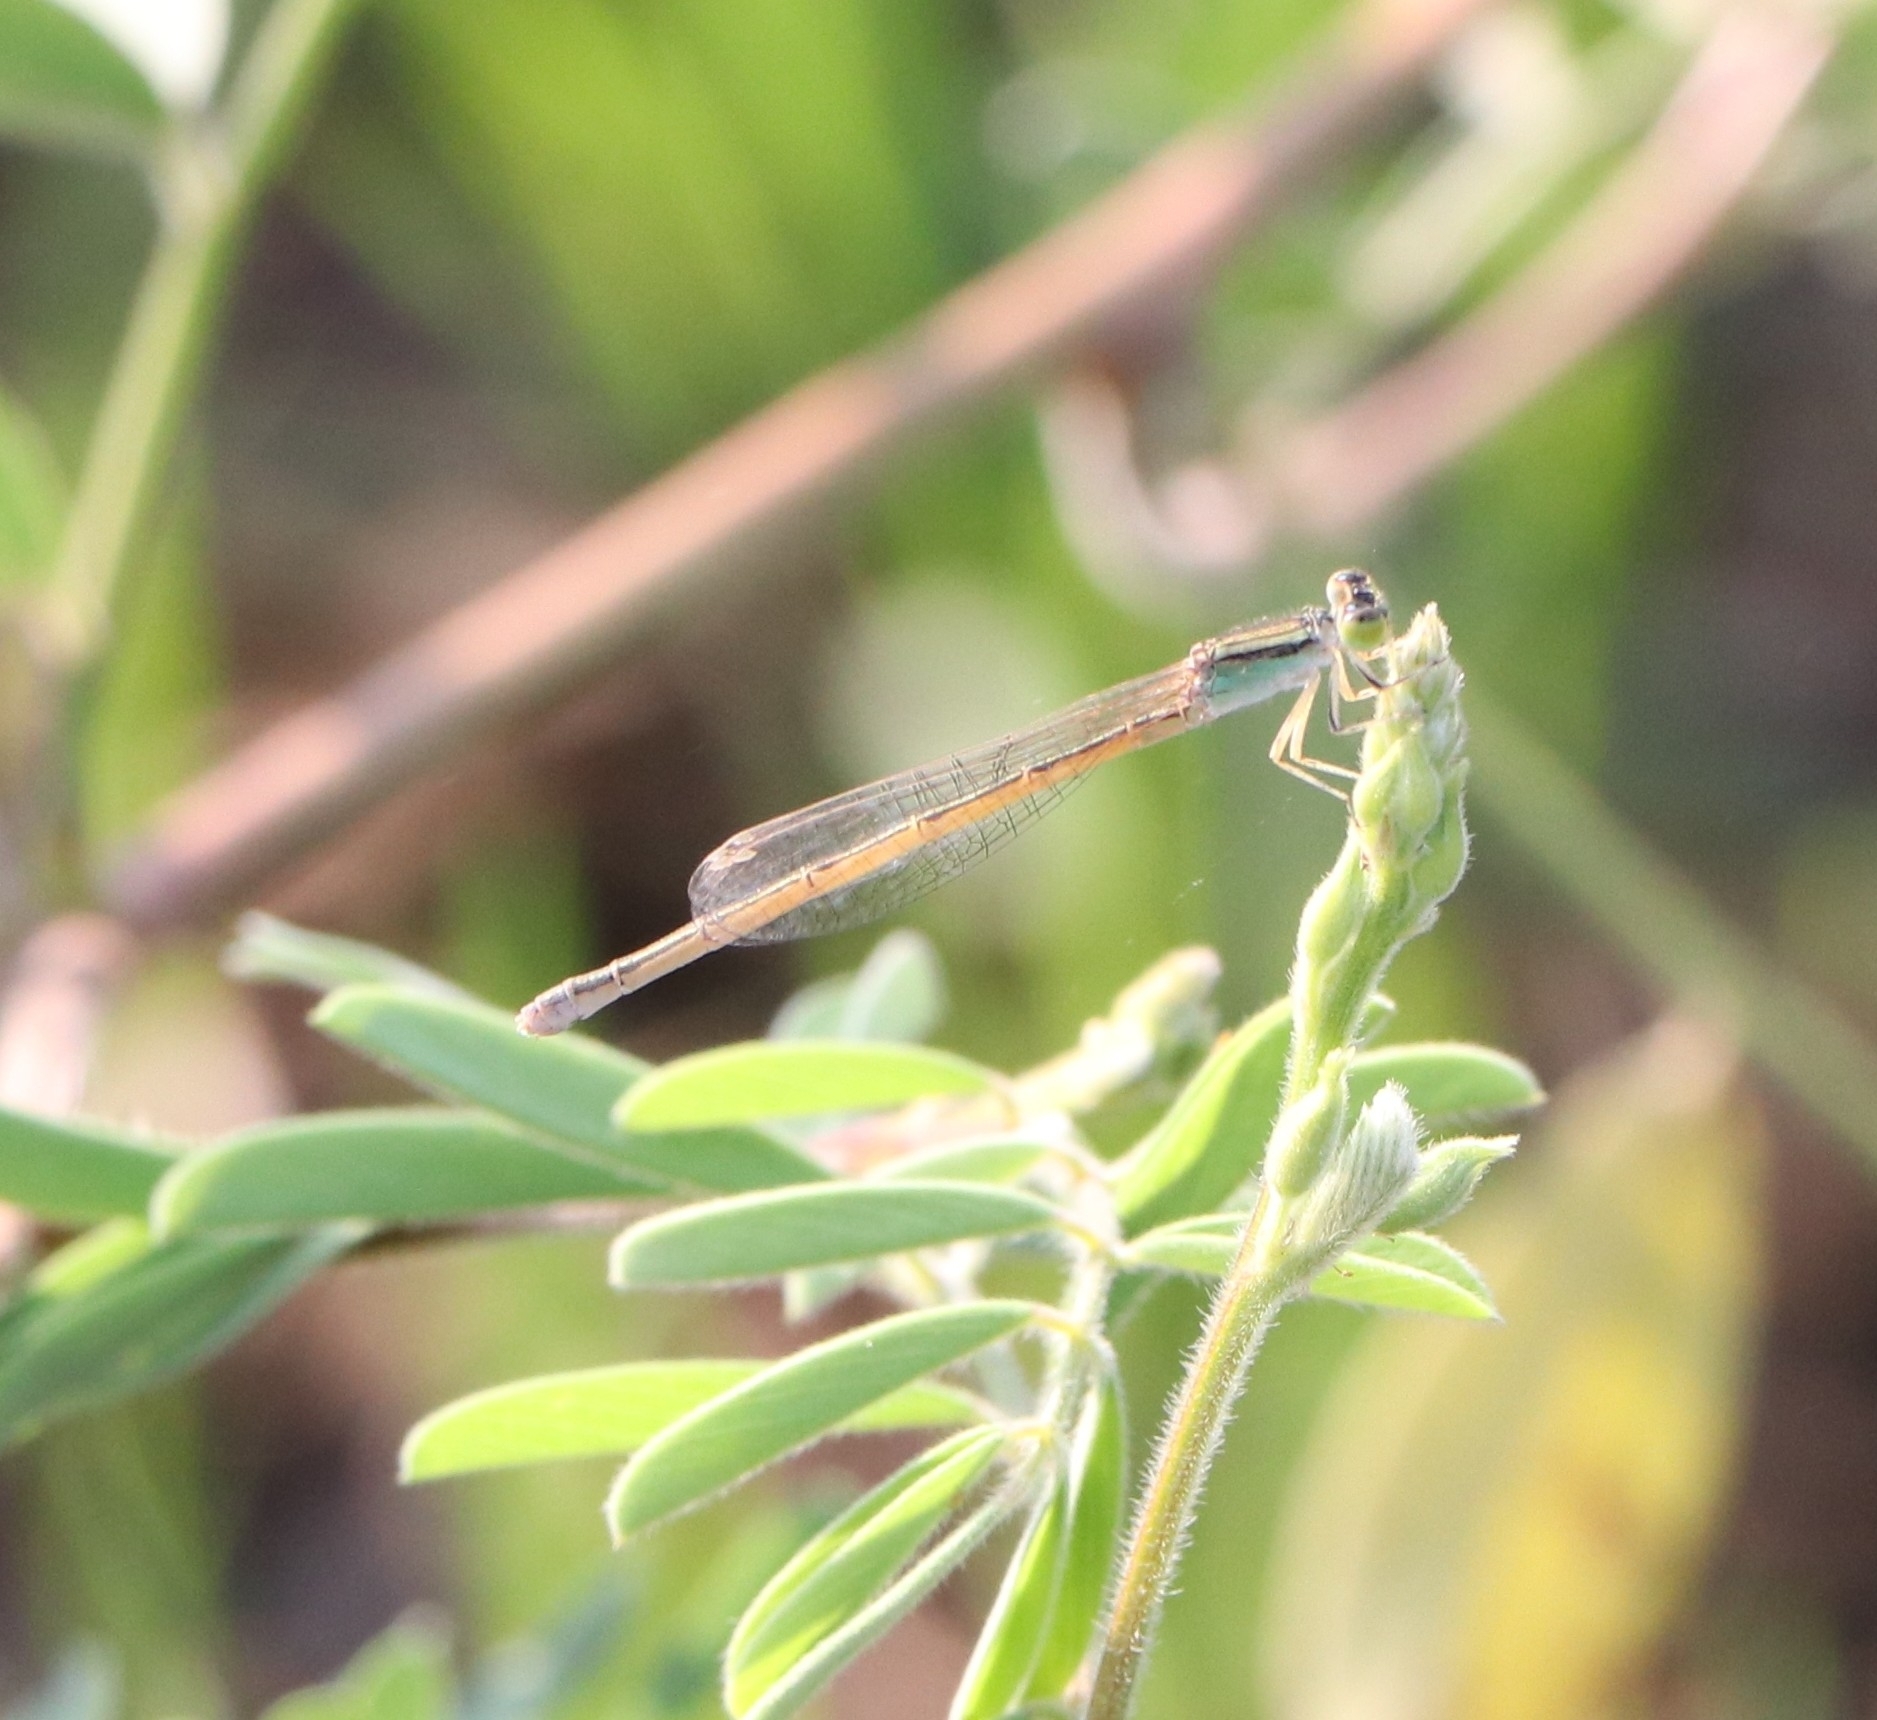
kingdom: Animalia
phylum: Arthropoda
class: Insecta
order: Odonata
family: Coenagrionidae
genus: Ischnura
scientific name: Ischnura rubilio
